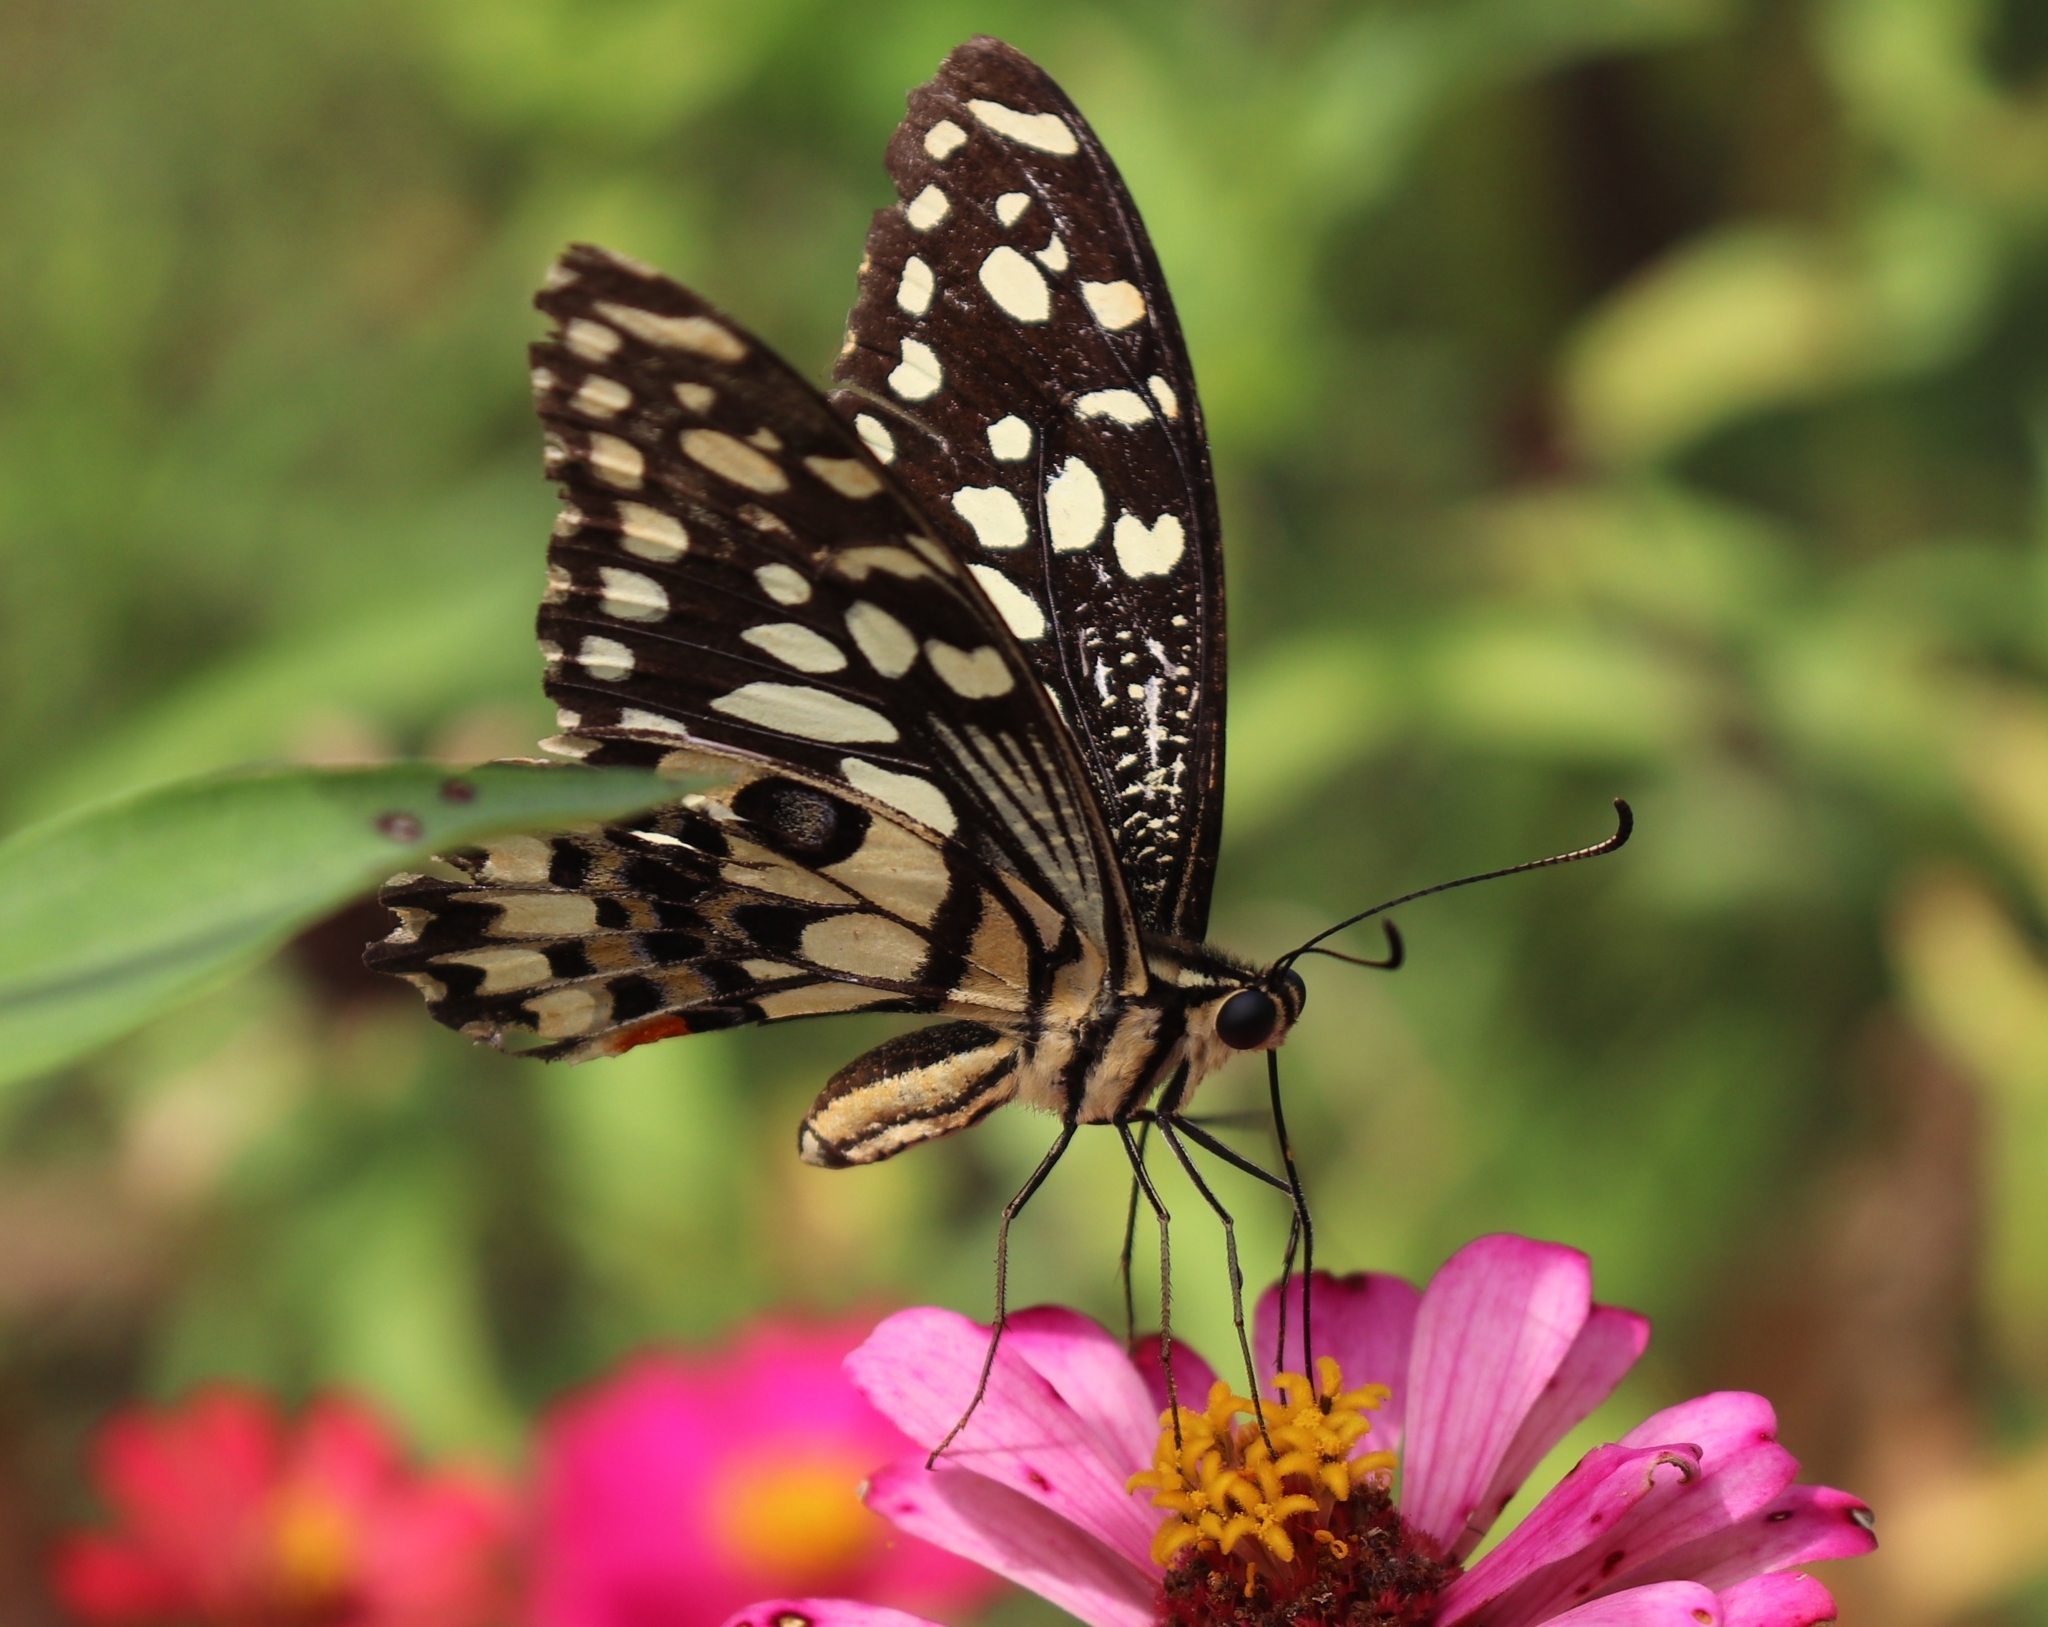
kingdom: Animalia
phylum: Arthropoda
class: Insecta
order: Lepidoptera
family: Papilionidae
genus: Papilio
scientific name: Papilio demoleus
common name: Lime butterfly
